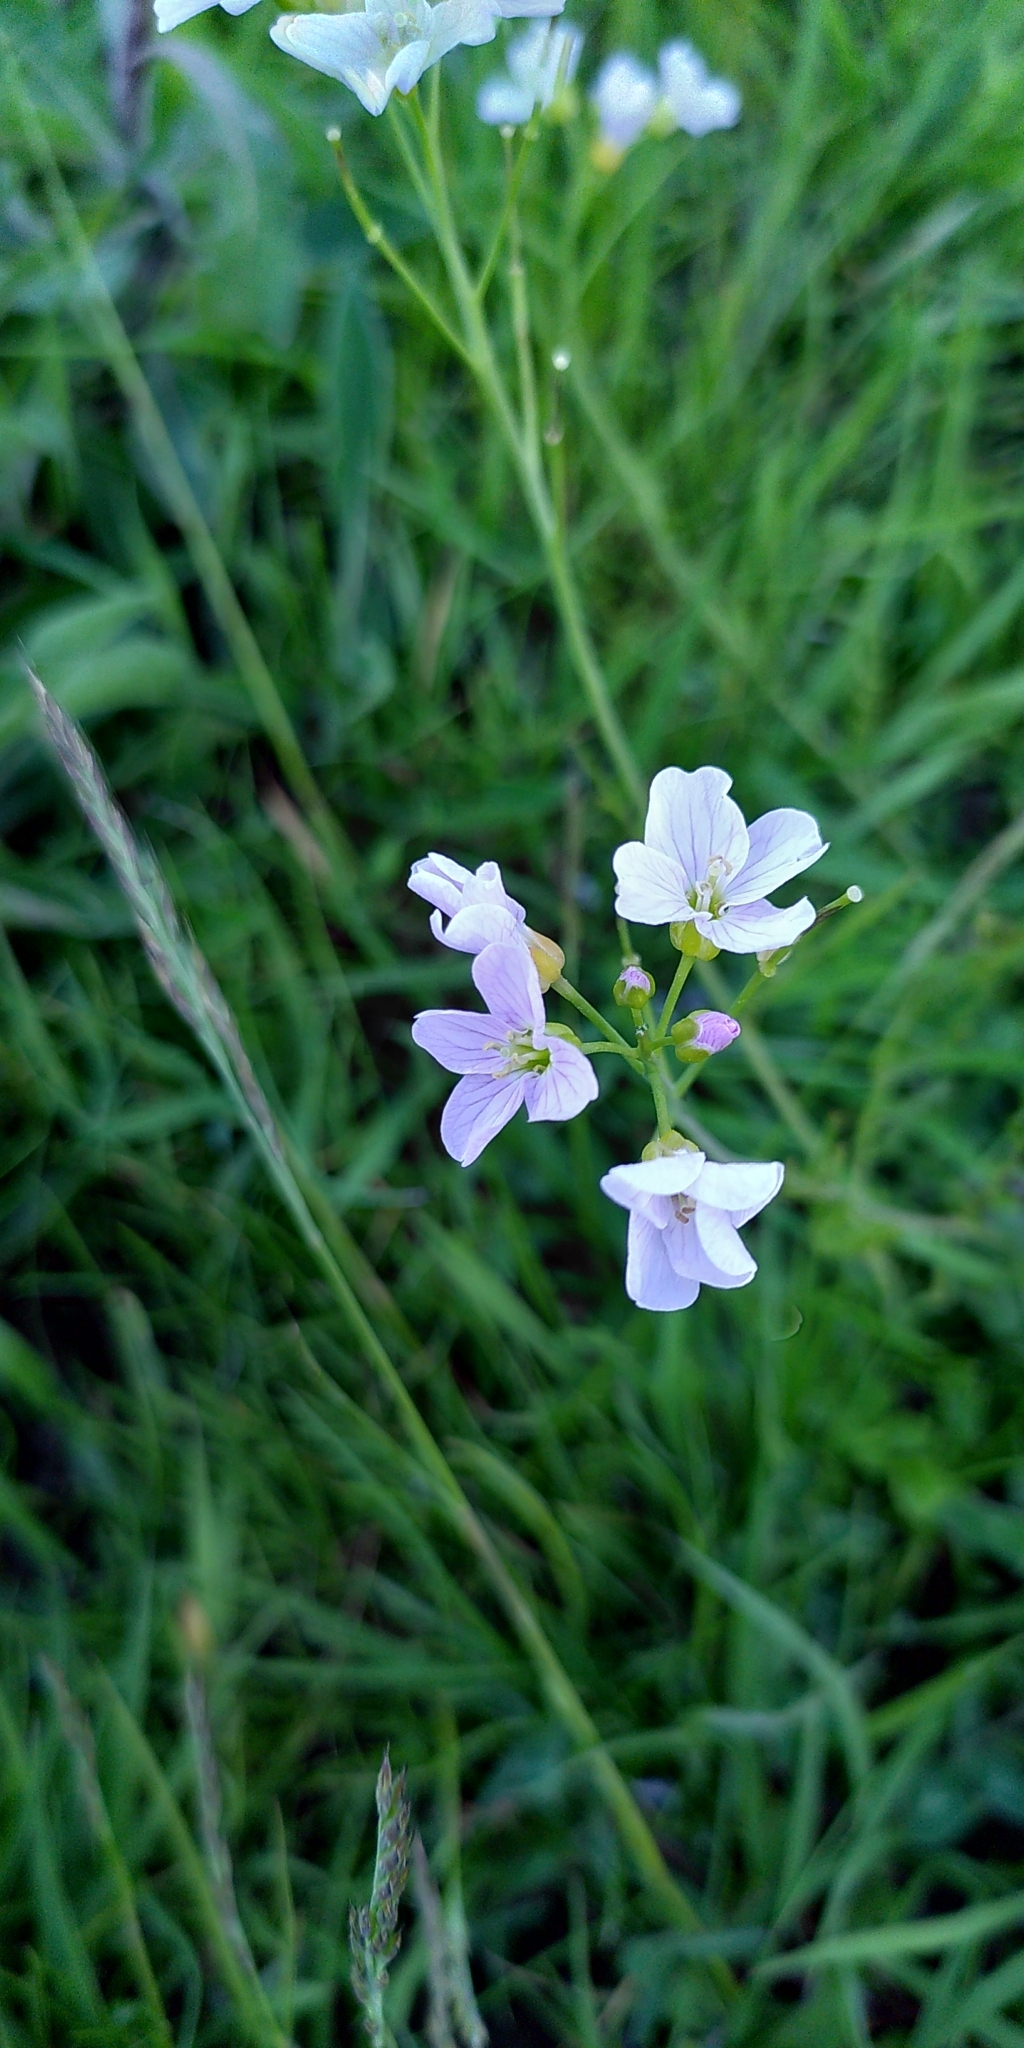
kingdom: Plantae
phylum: Tracheophyta
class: Magnoliopsida
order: Brassicales
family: Brassicaceae
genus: Cardamine
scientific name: Cardamine pratensis
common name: Cuckoo flower
